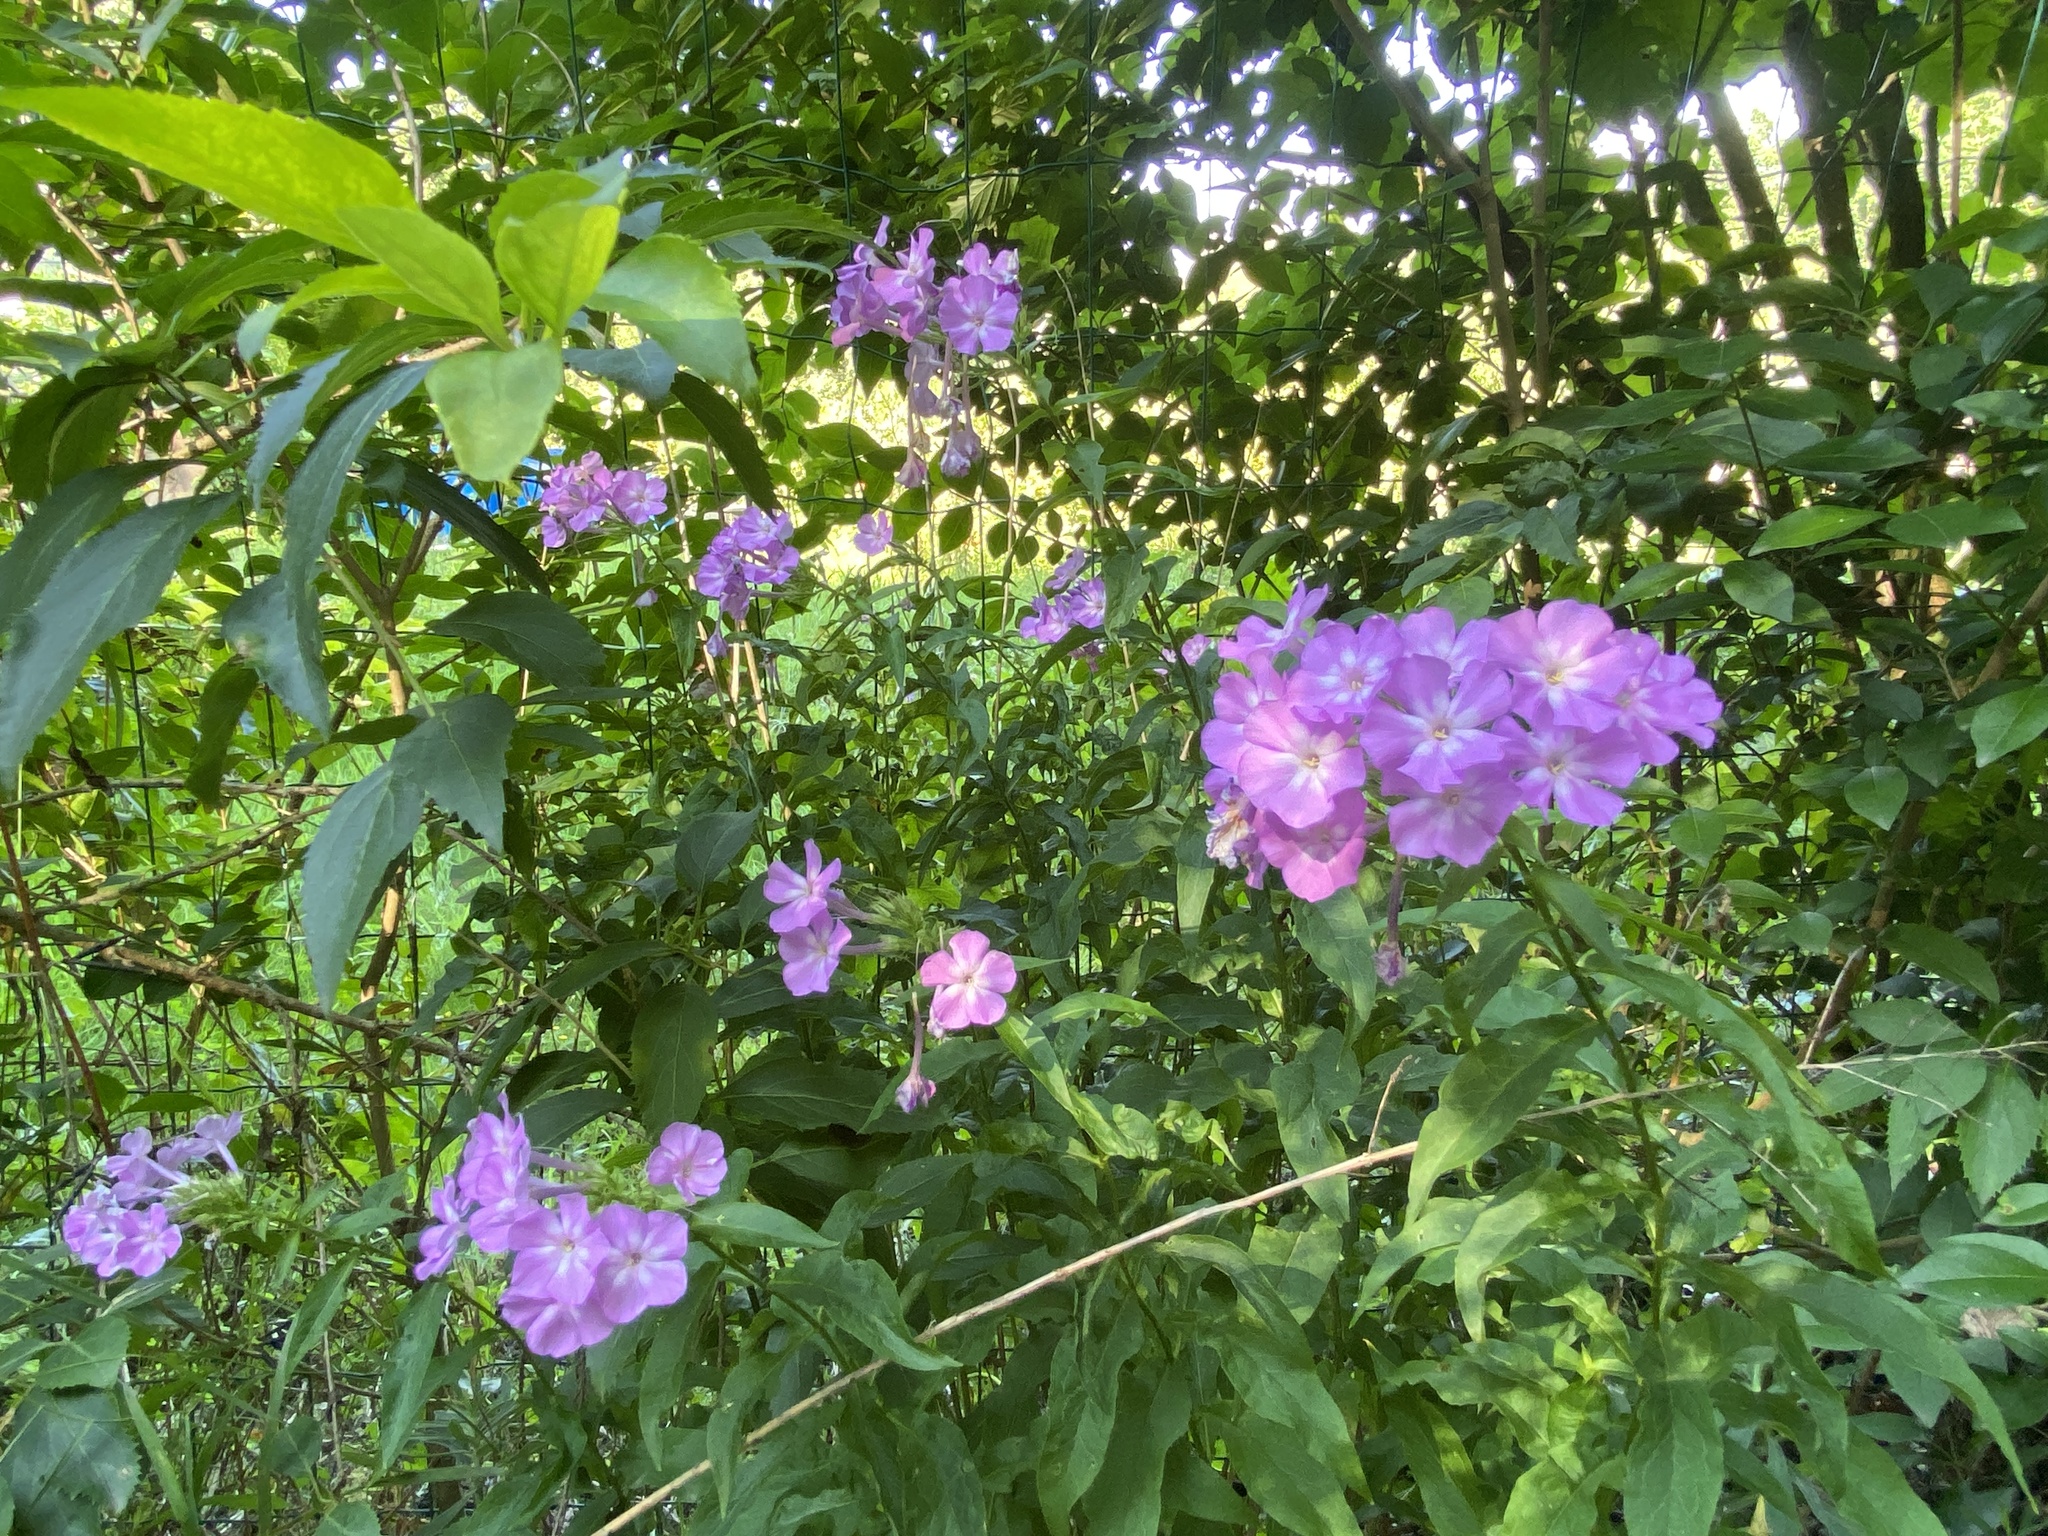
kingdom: Plantae
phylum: Tracheophyta
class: Magnoliopsida
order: Ericales
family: Polemoniaceae
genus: Phlox
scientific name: Phlox paniculata
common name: Fall phlox
